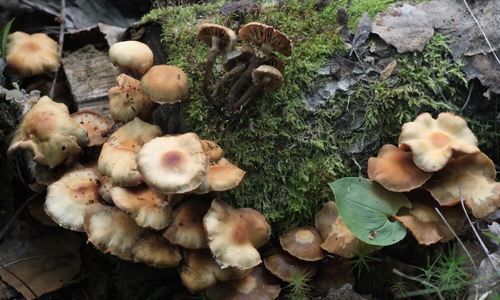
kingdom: Fungi
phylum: Basidiomycota
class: Agaricomycetes
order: Agaricales
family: Strophariaceae
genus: Kuehneromyces
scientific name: Kuehneromyces mutabilis
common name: Sheathed woodtuft
